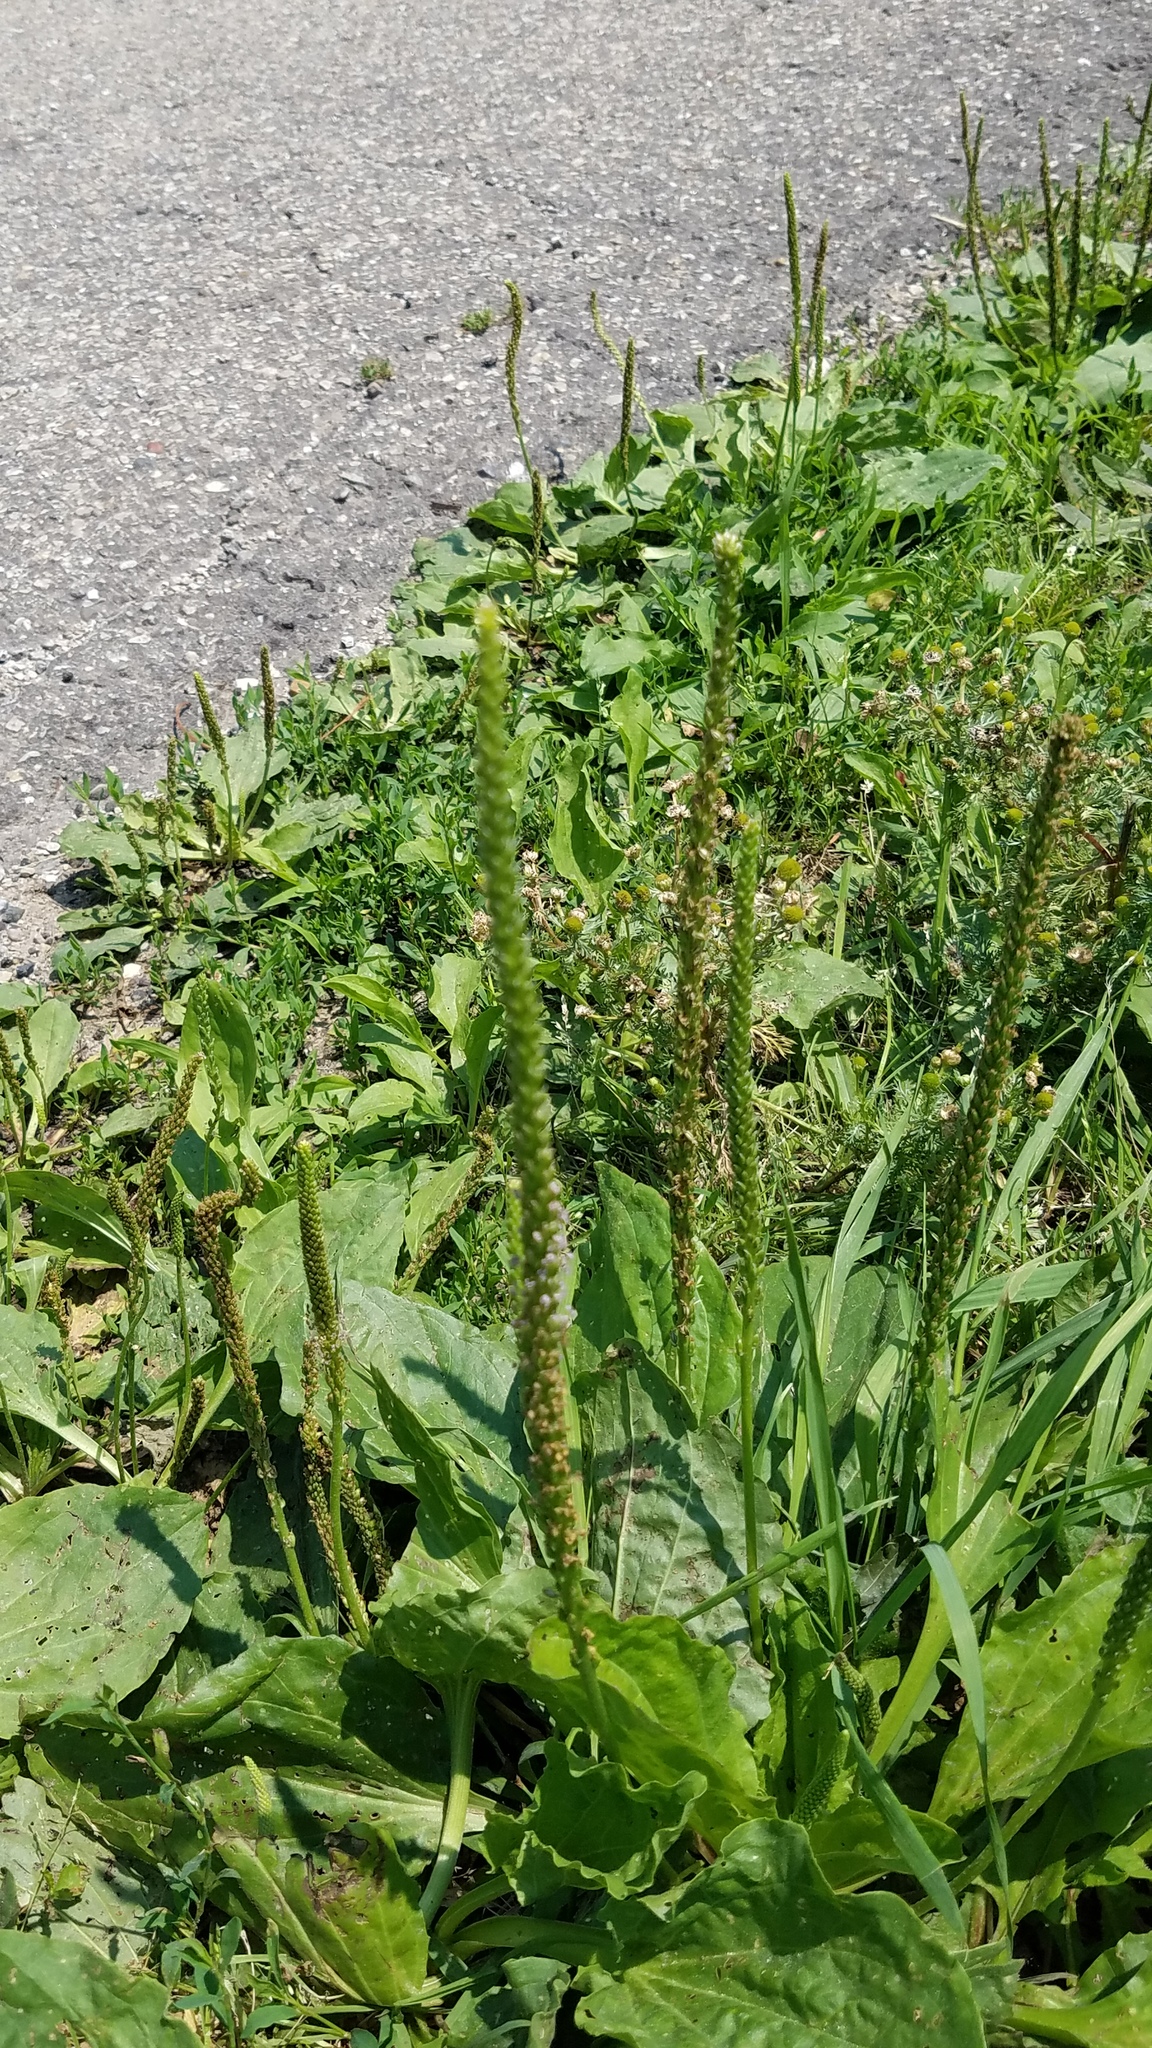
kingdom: Plantae
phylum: Tracheophyta
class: Magnoliopsida
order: Lamiales
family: Plantaginaceae
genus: Plantago
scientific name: Plantago major
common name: Common plantain
